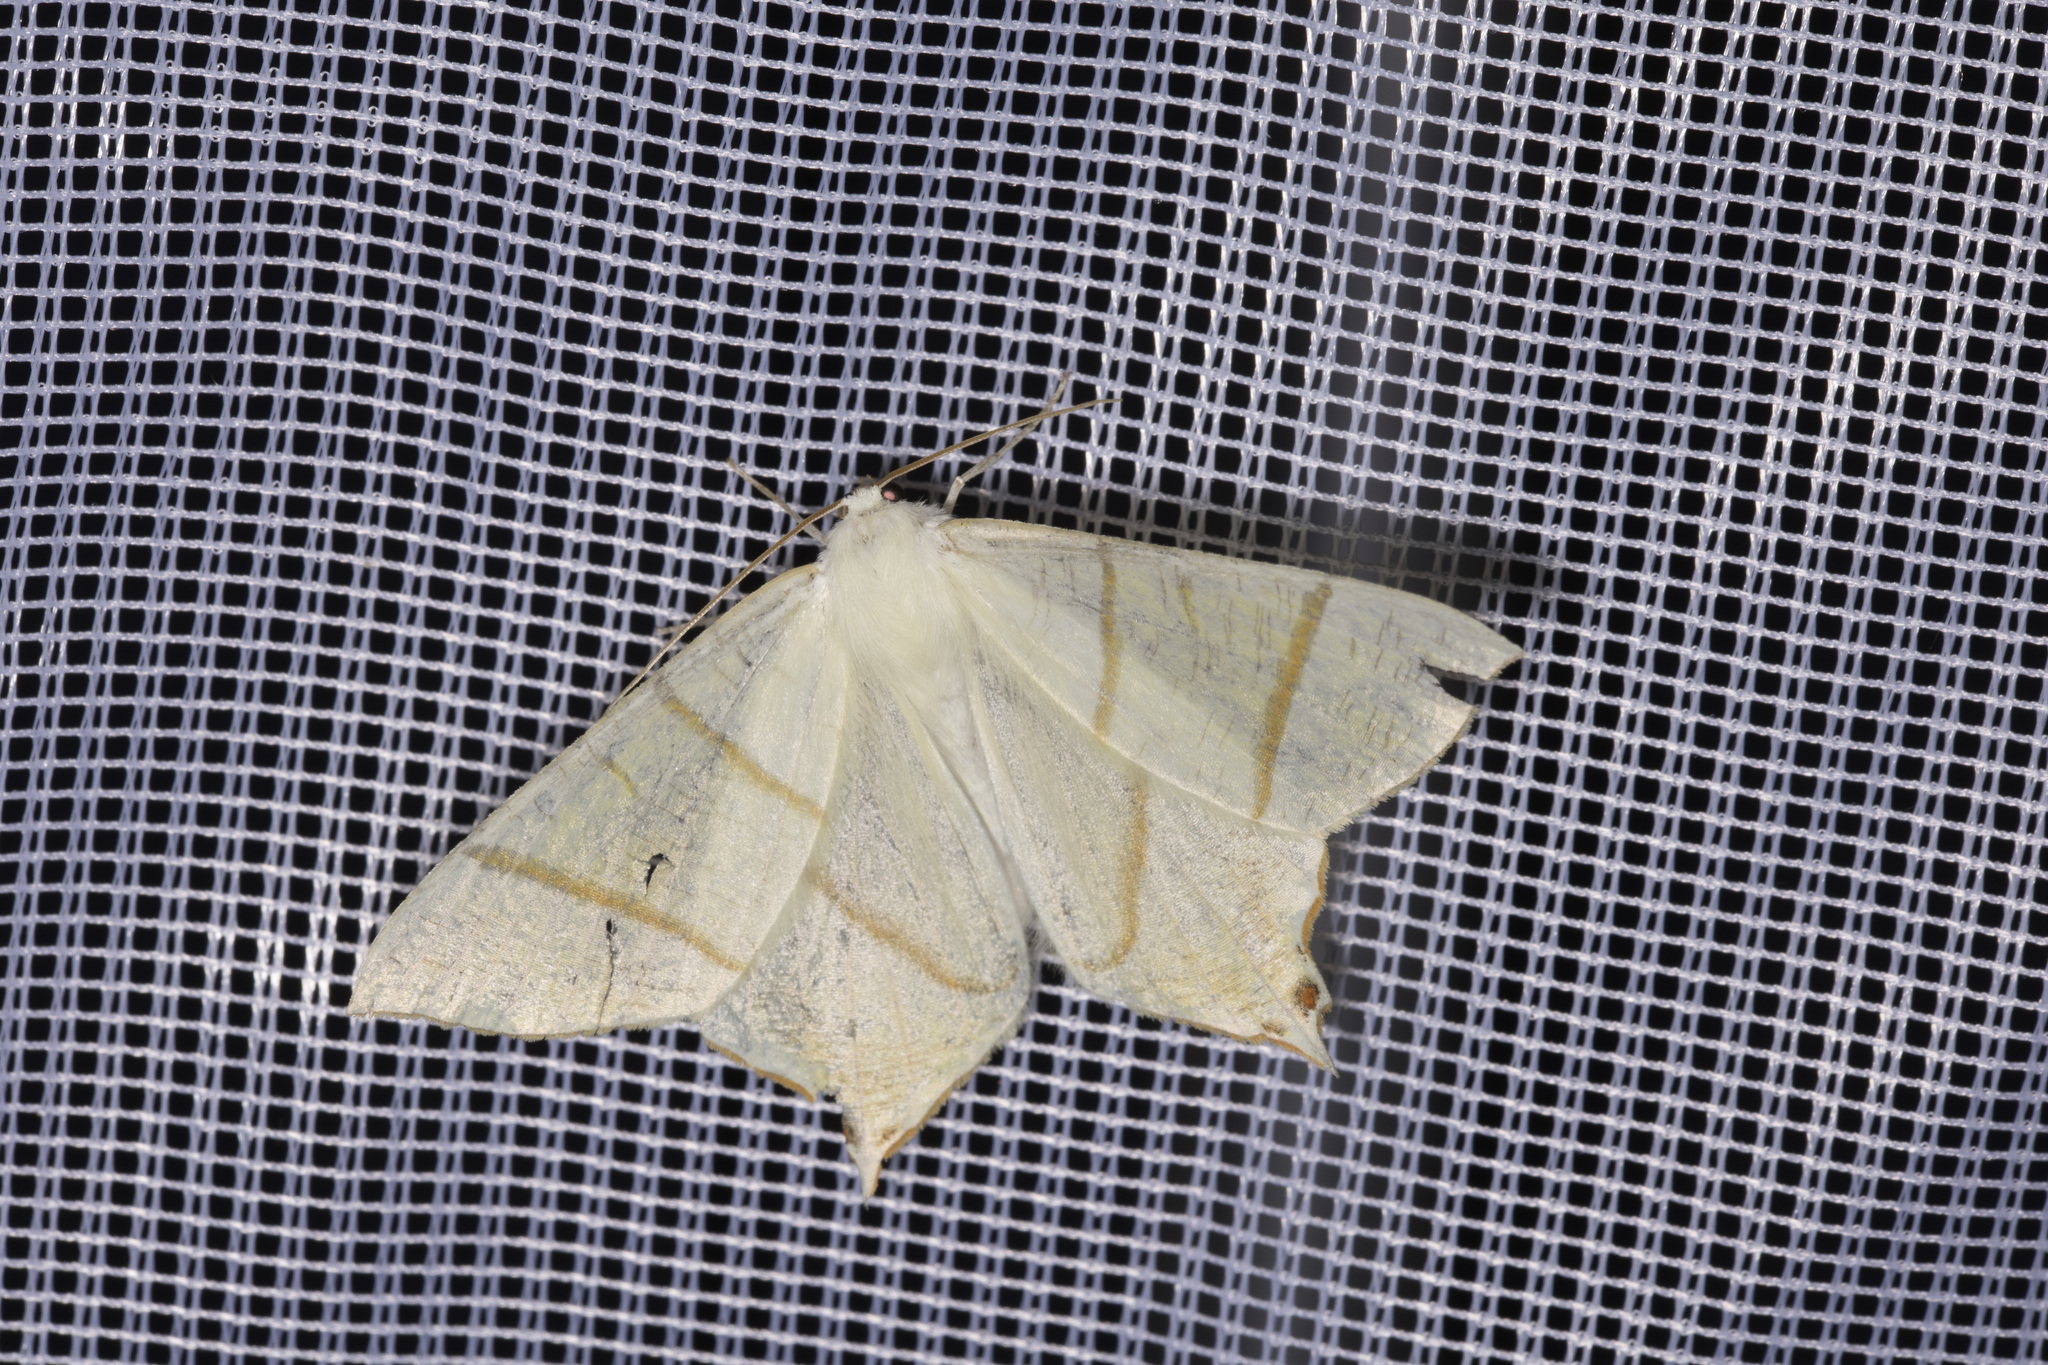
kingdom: Animalia
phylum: Arthropoda
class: Insecta
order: Lepidoptera
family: Geometridae
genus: Ourapteryx
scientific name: Ourapteryx sambucaria
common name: Swallow-tailed moth
